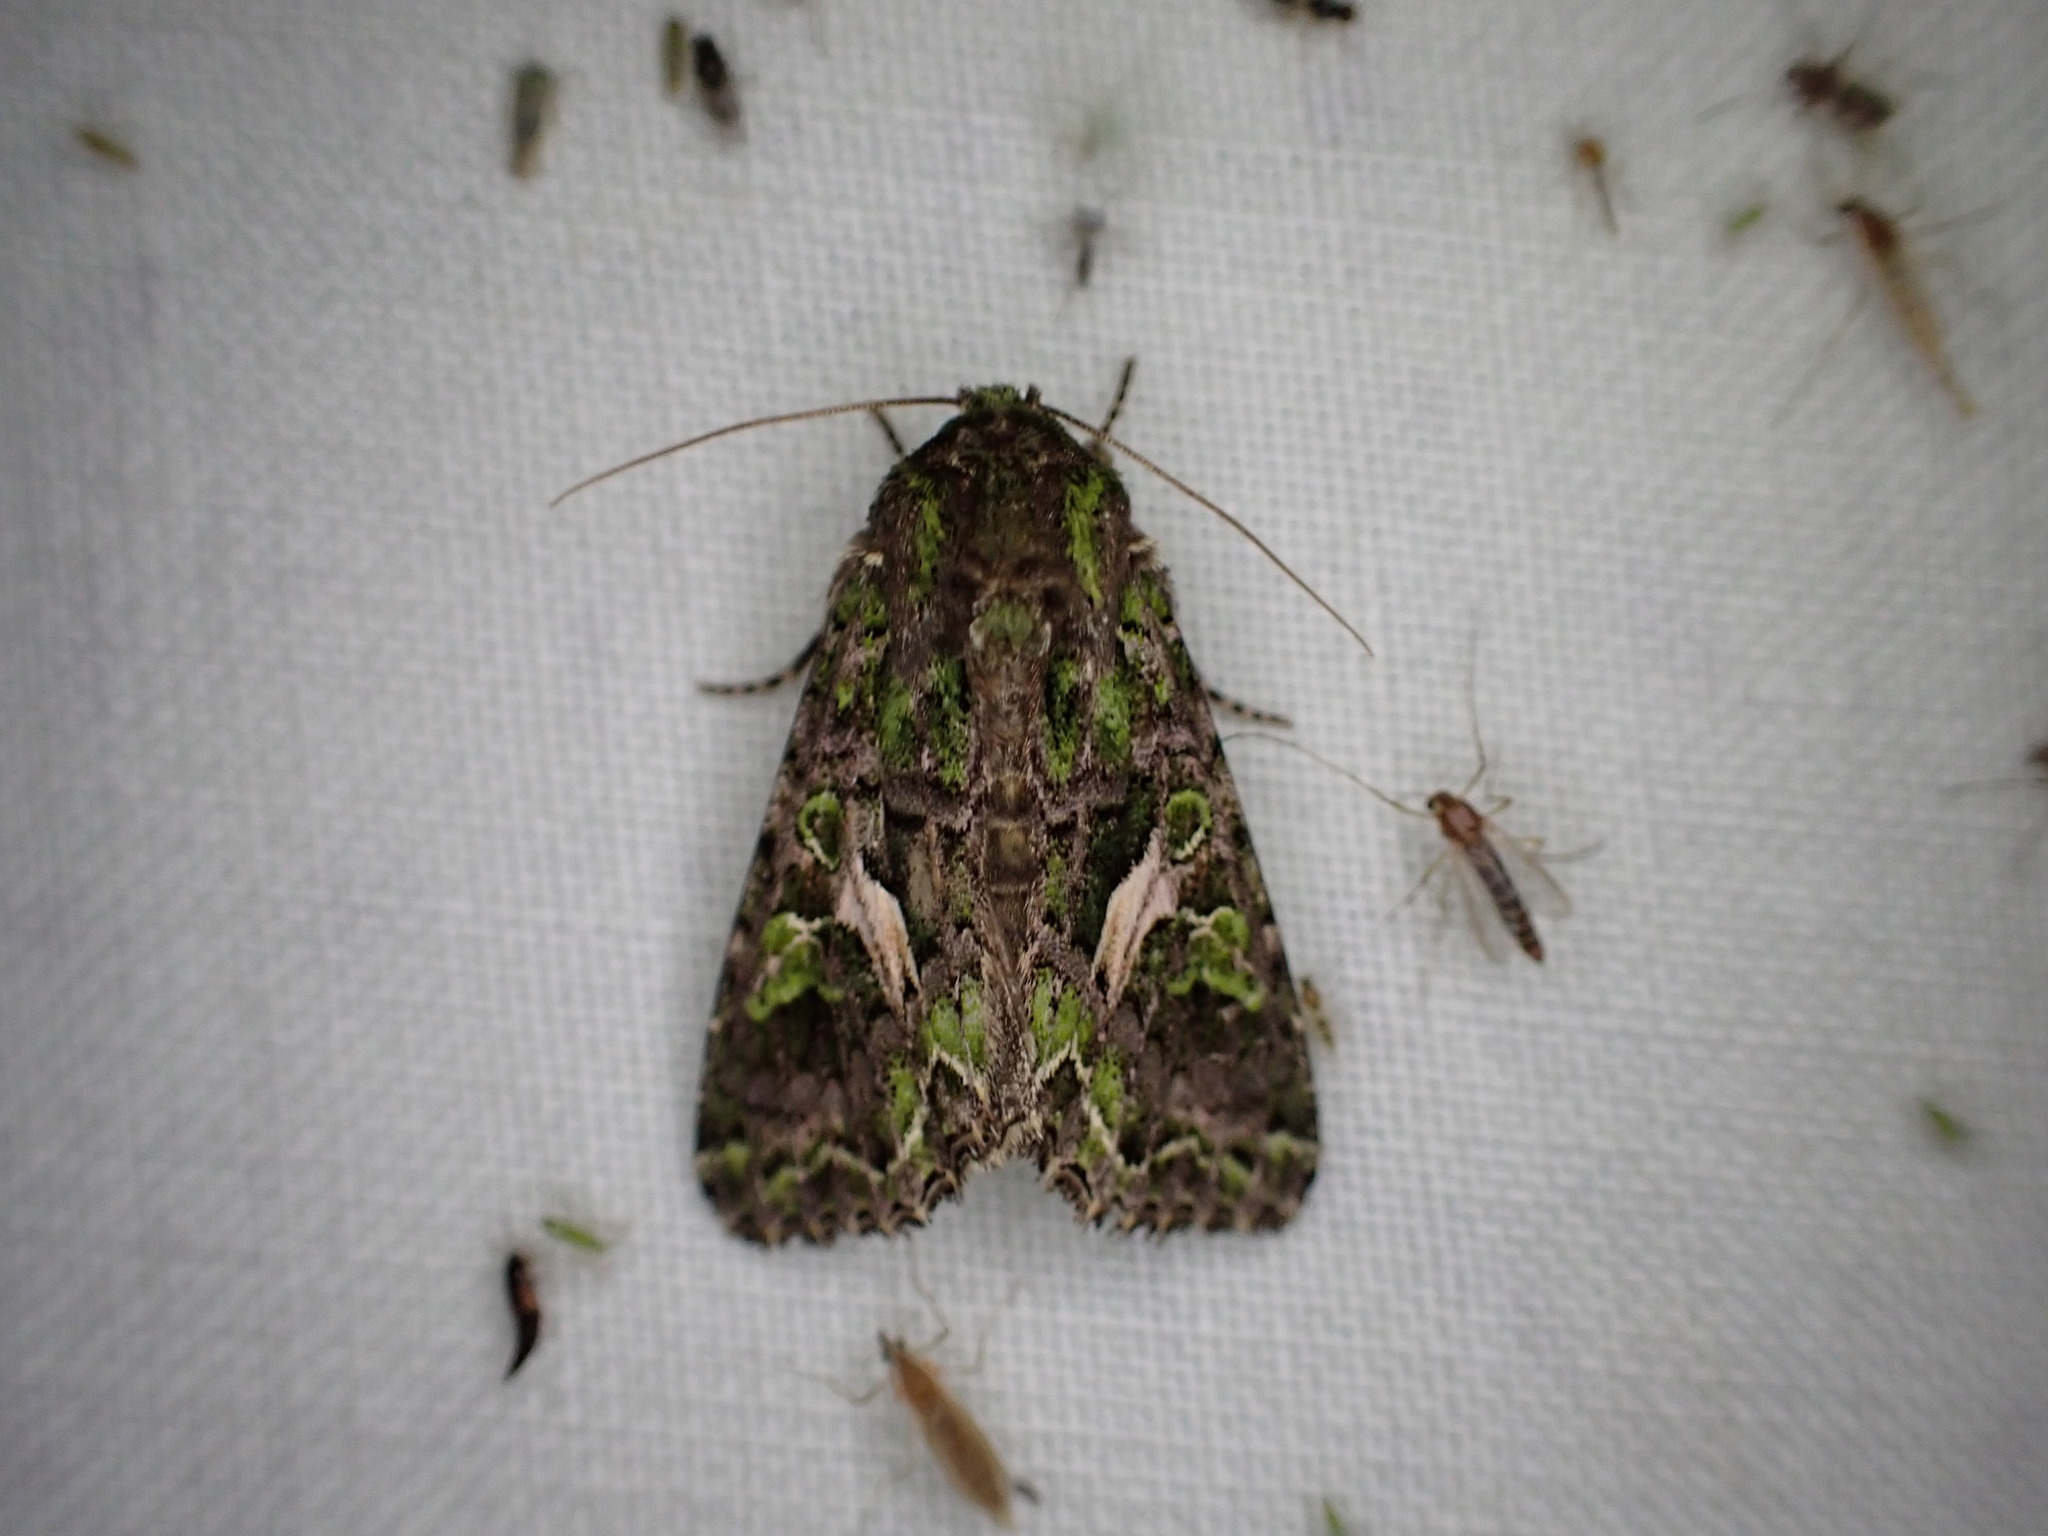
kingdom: Animalia
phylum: Arthropoda
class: Insecta
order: Lepidoptera
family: Noctuidae
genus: Trachea
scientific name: Trachea atriplicis
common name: Orache moth
